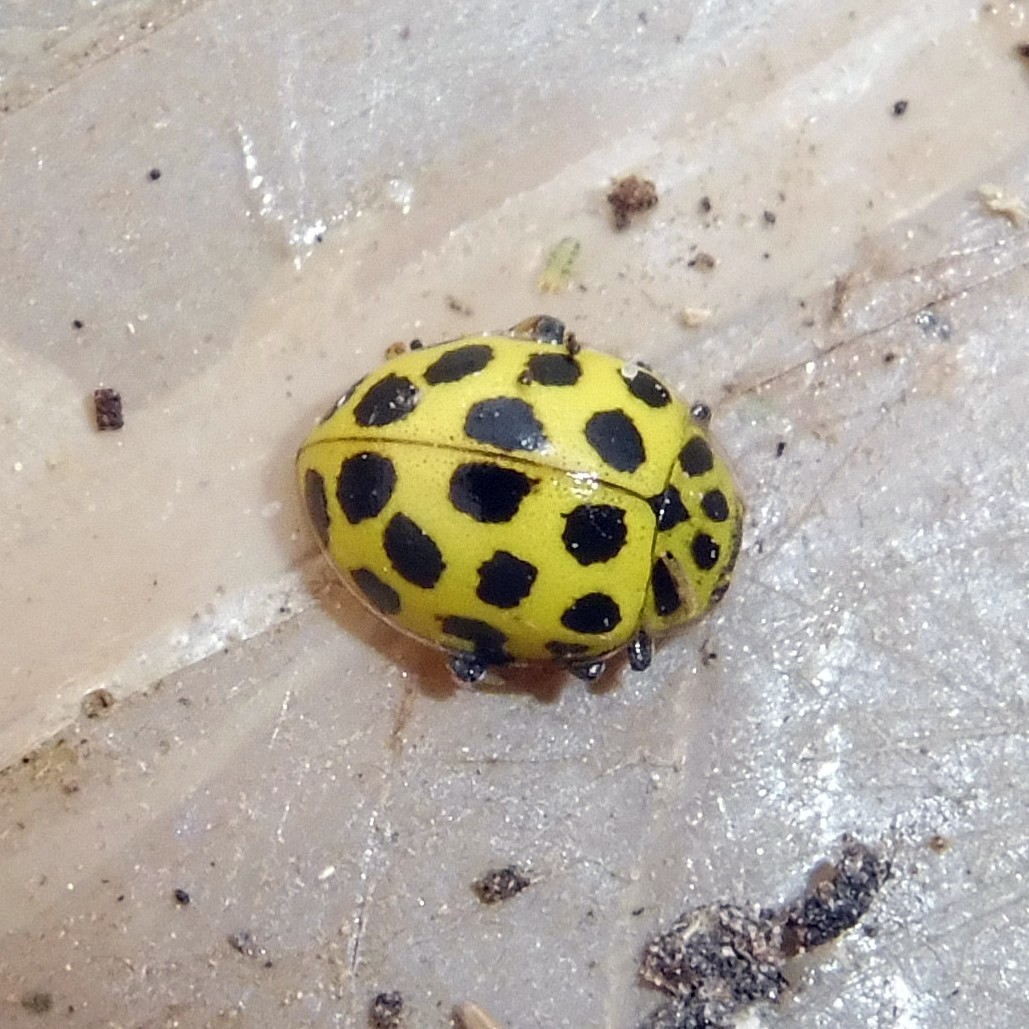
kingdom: Animalia
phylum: Arthropoda
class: Insecta
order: Coleoptera
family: Coccinellidae
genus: Psyllobora
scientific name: Psyllobora vigintiduopunctata
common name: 22-spot ladybird
